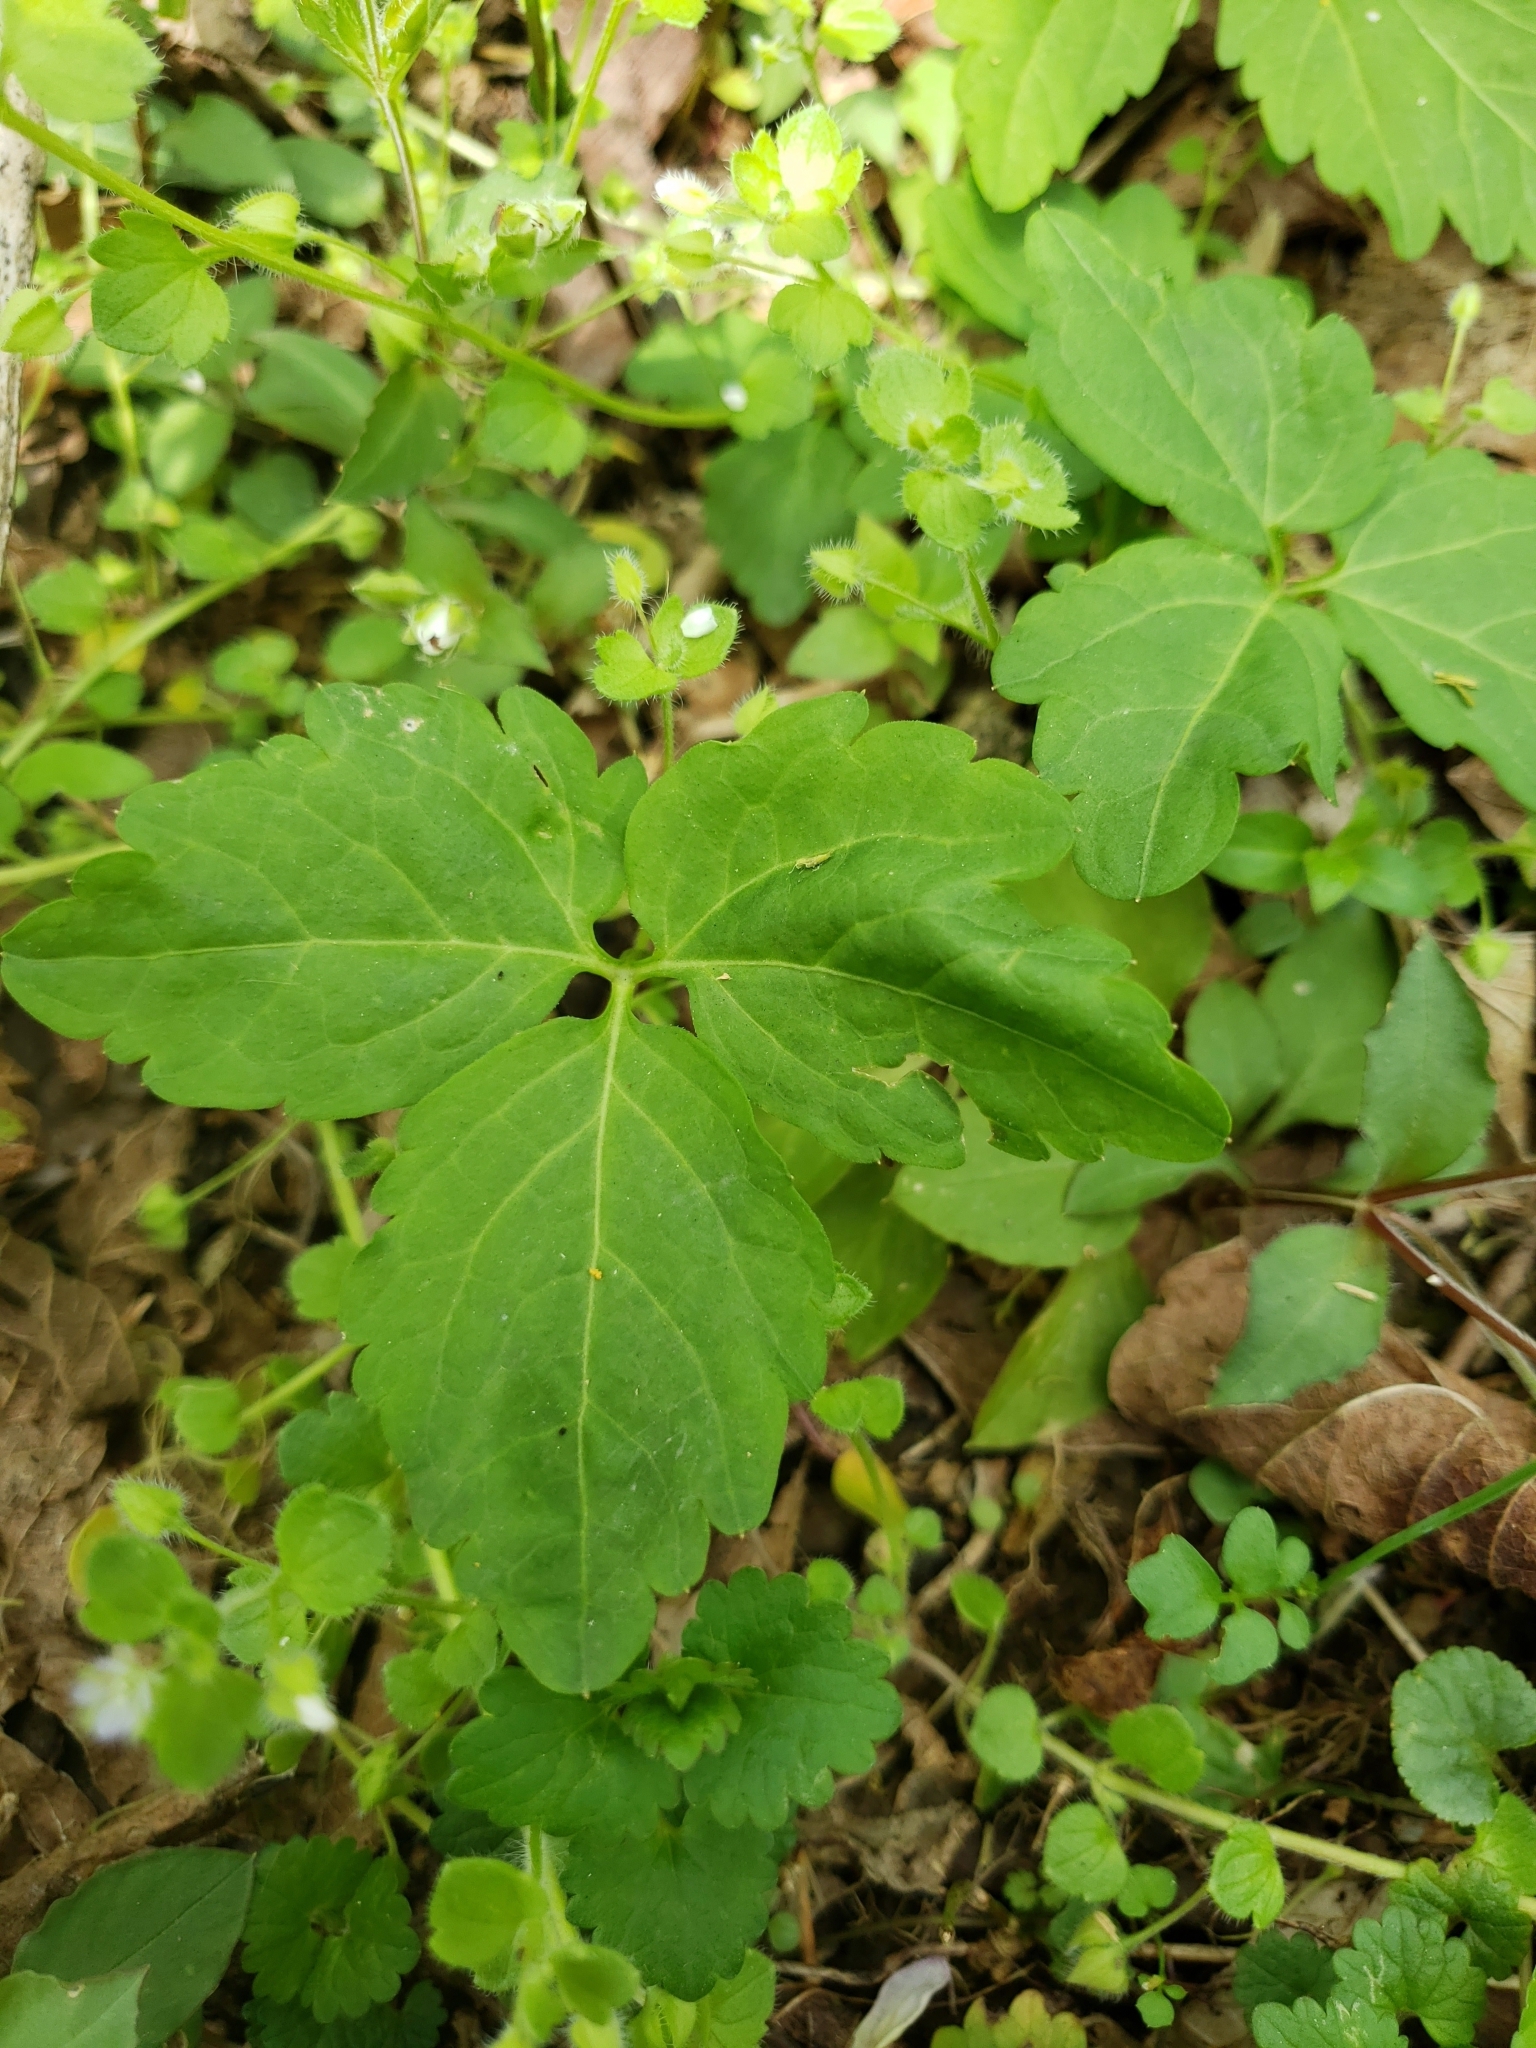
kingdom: Plantae
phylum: Tracheophyta
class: Magnoliopsida
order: Brassicales
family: Brassicaceae
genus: Cardamine
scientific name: Cardamine diphylla
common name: Broad-leaved toothwort
